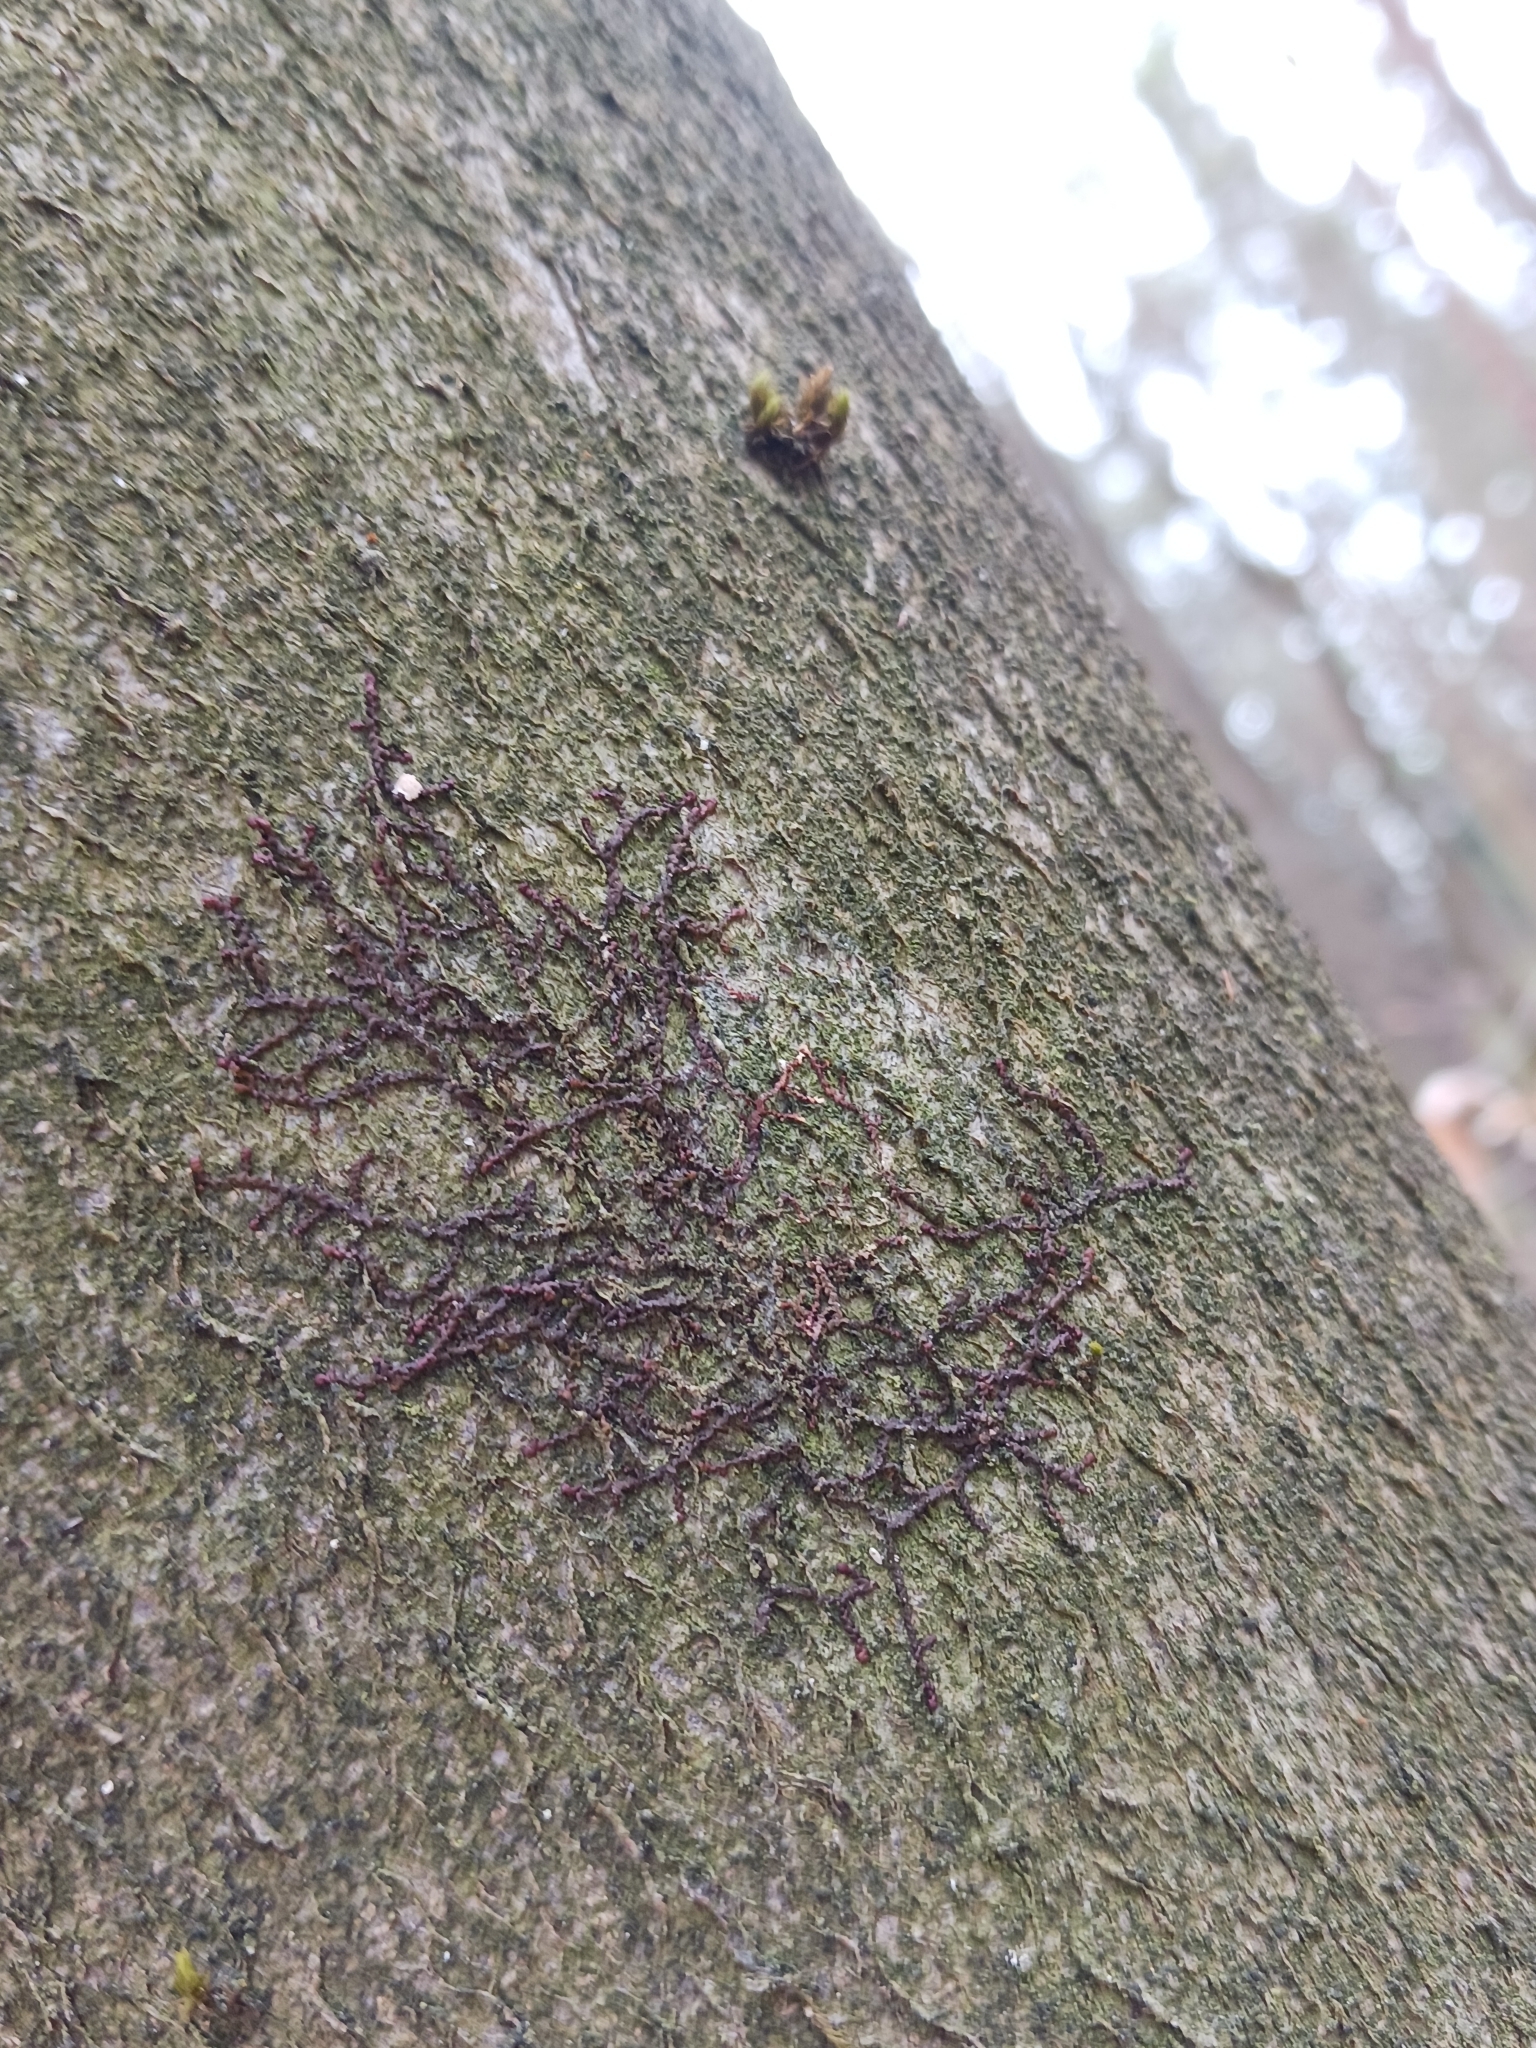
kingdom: Plantae
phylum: Marchantiophyta
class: Jungermanniopsida
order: Porellales
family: Frullaniaceae
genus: Frullania
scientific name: Frullania dilatata
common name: Dilated scalewort
